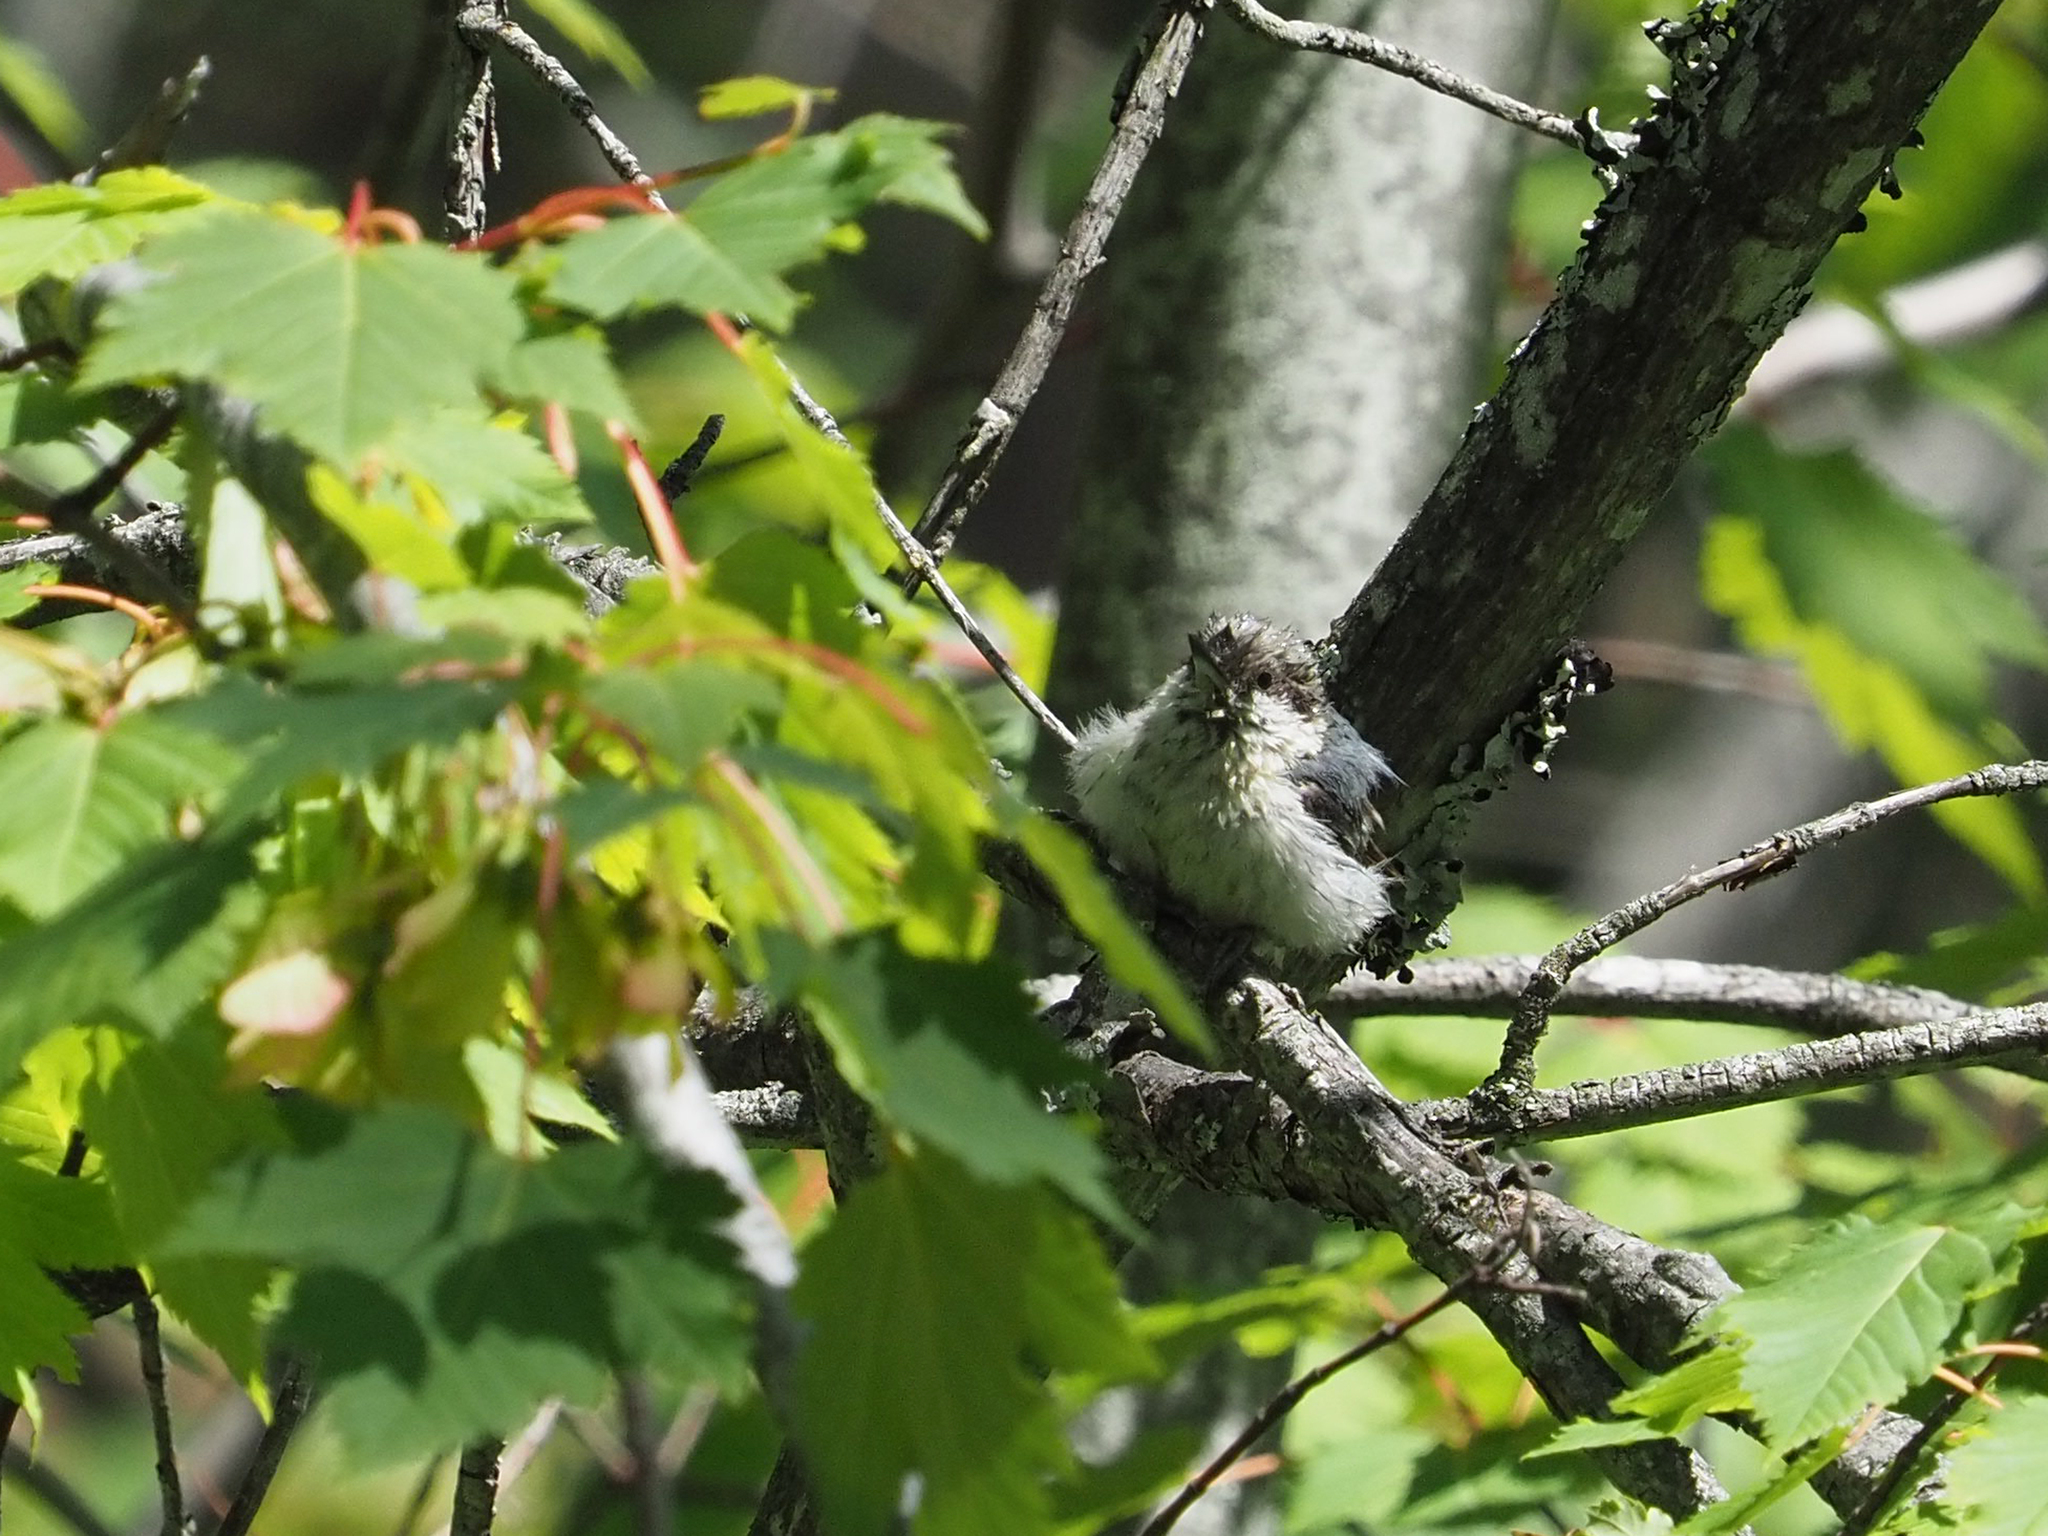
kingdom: Animalia
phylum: Chordata
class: Aves
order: Passeriformes
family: Sittidae
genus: Sitta
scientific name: Sitta pygmaea
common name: Pygmy nuthatch
